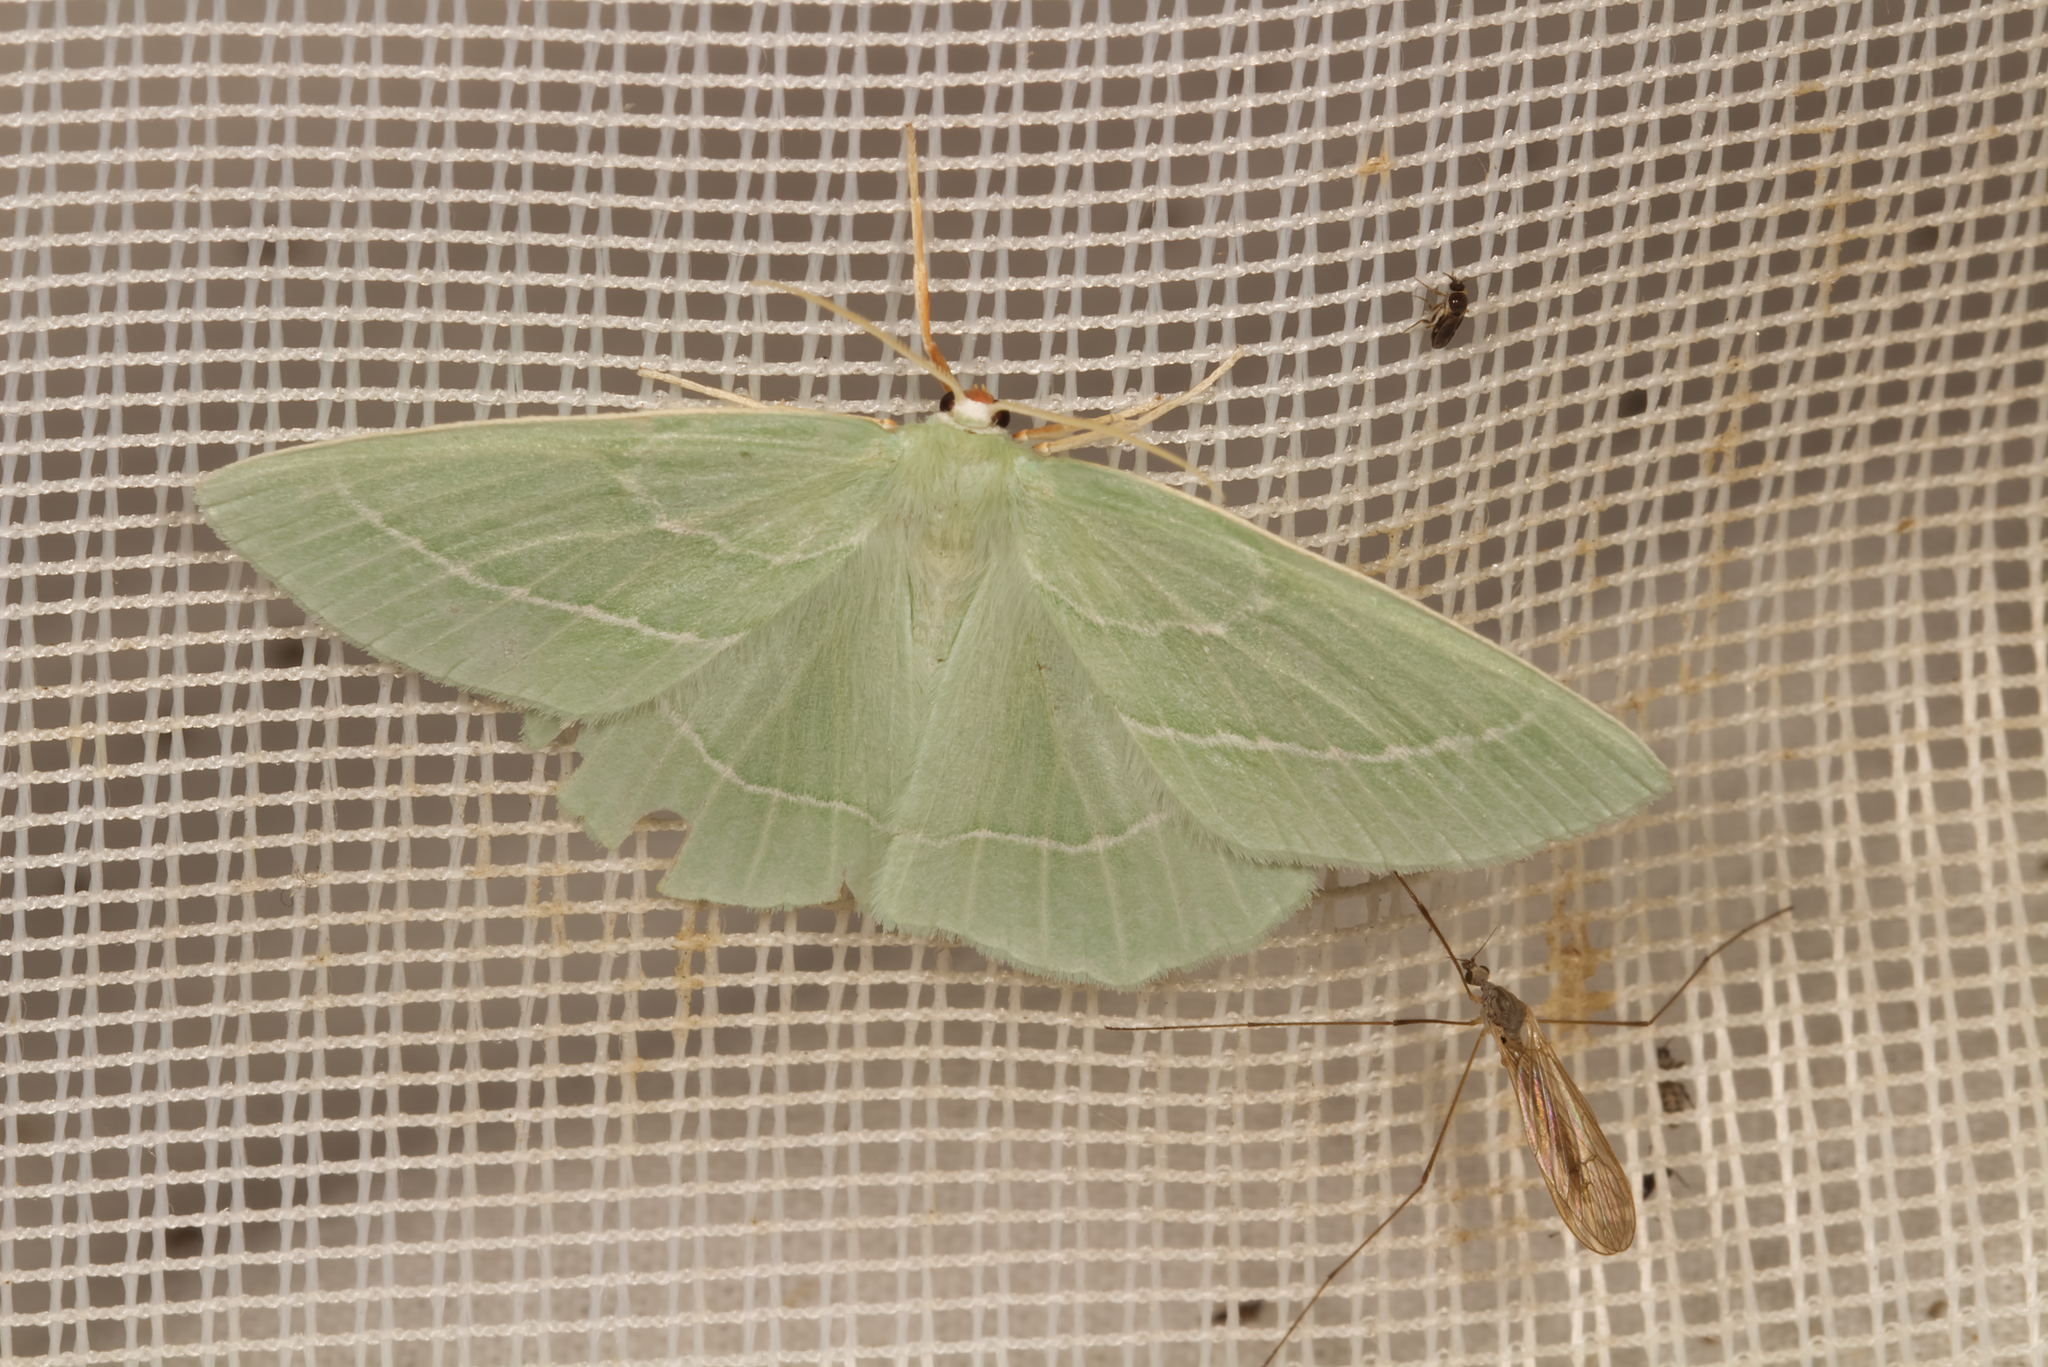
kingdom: Animalia
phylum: Arthropoda
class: Insecta
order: Lepidoptera
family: Geometridae
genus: Hemistola
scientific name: Hemistola chrysoprasaria
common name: Small emerald
